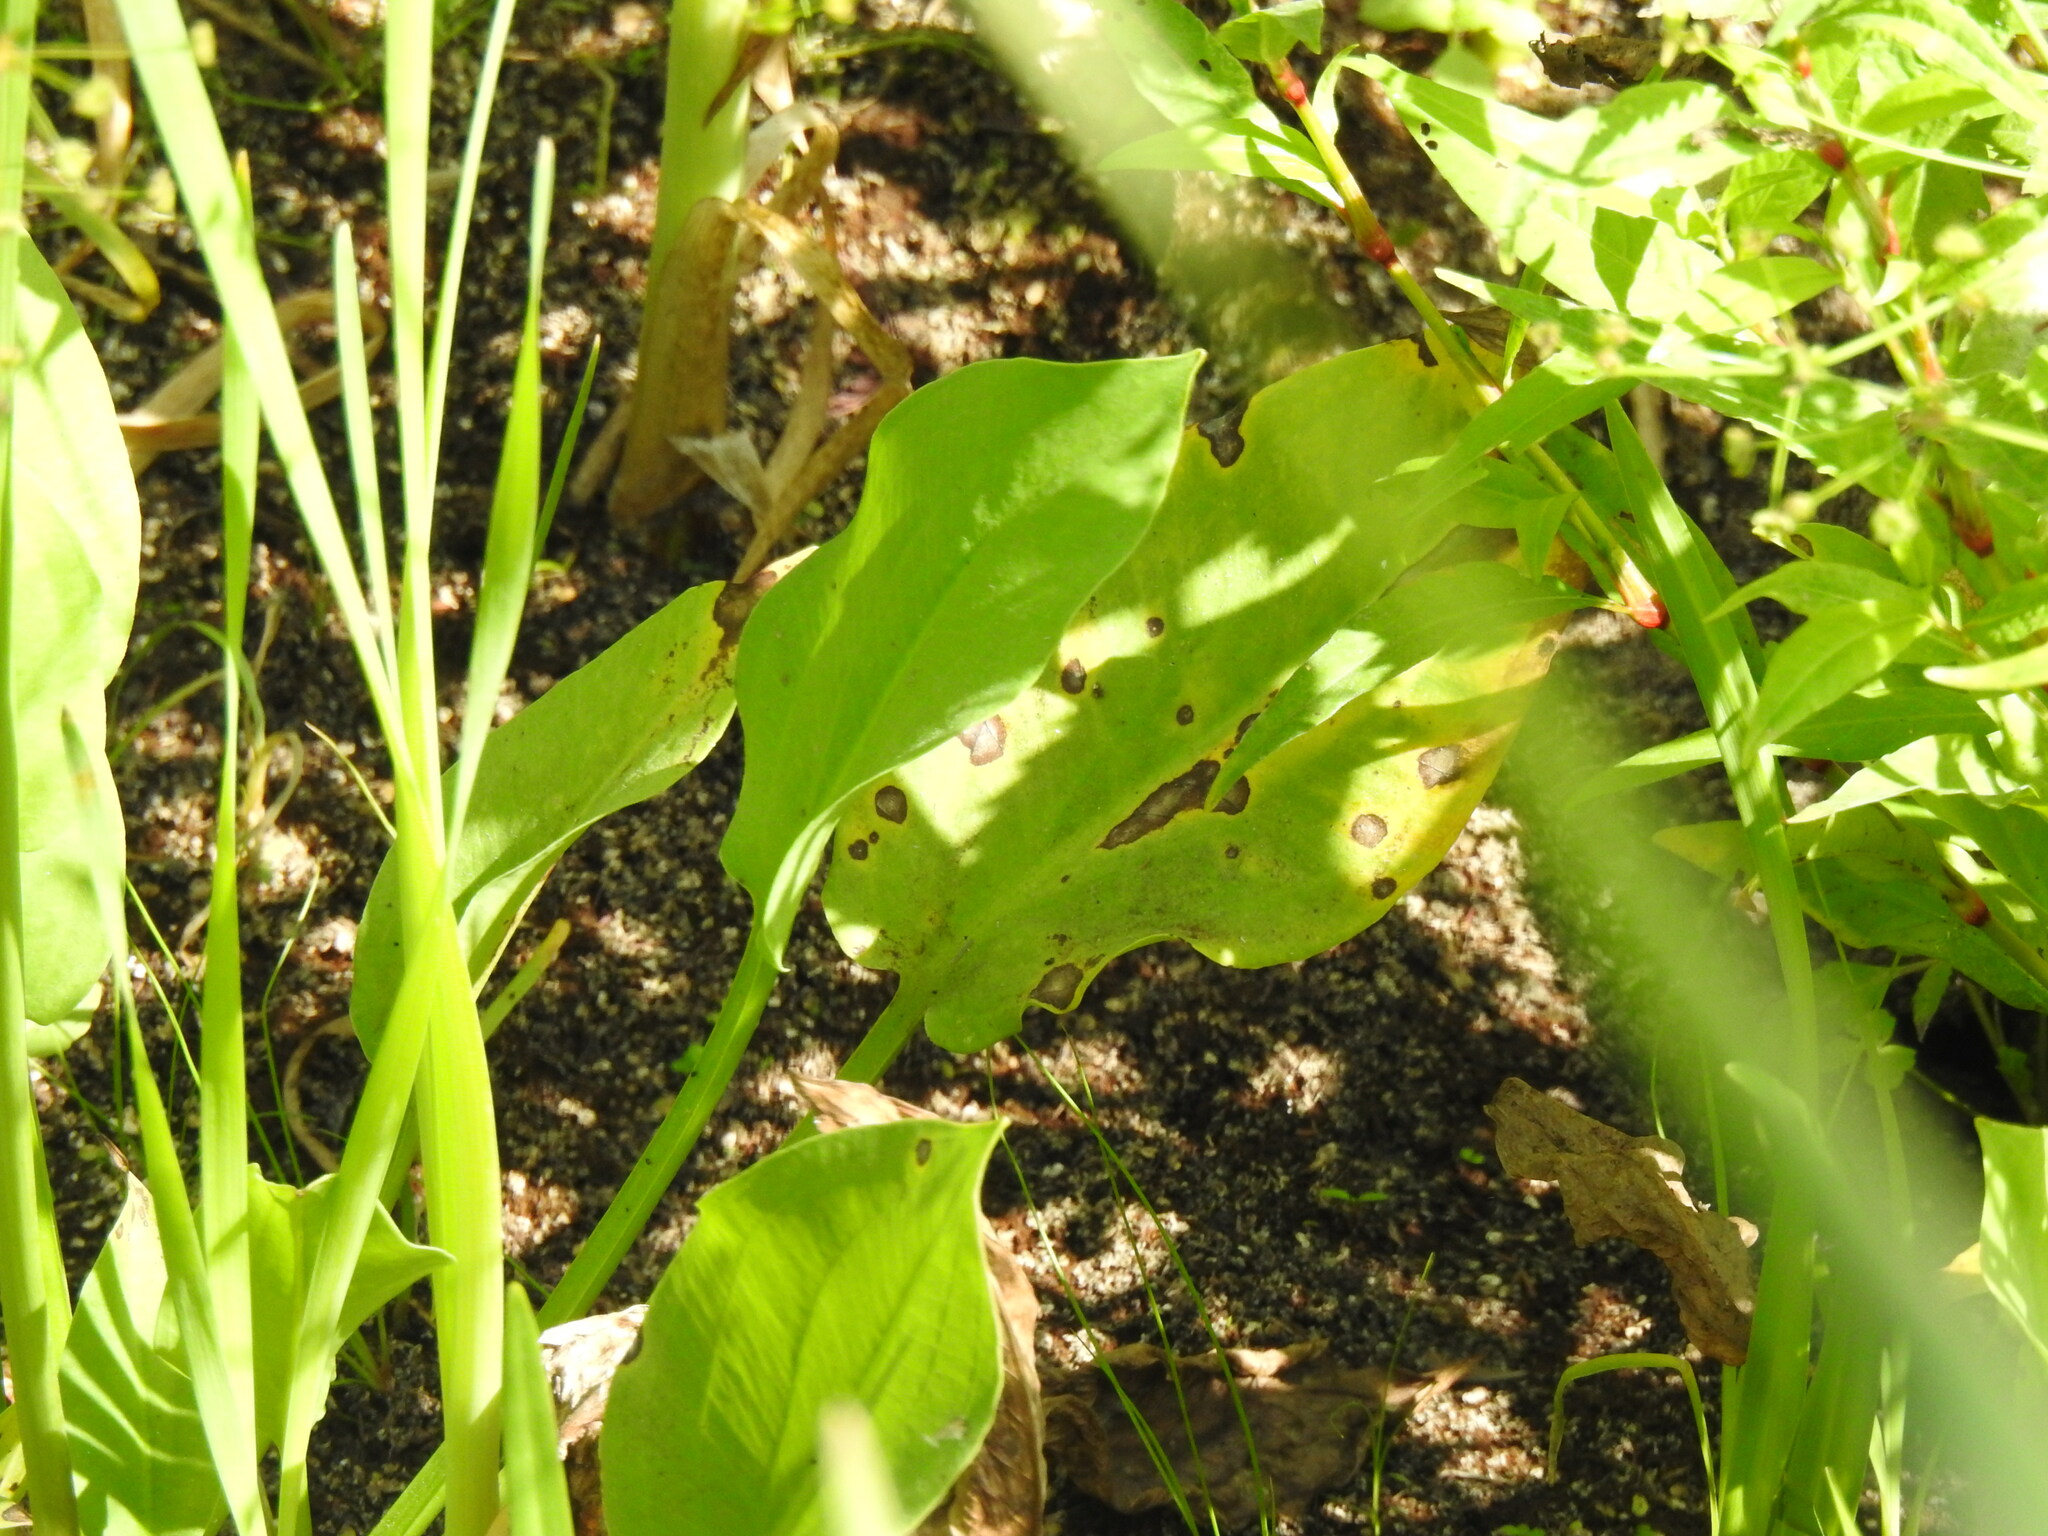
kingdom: Plantae
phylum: Tracheophyta
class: Liliopsida
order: Alismatales
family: Alismataceae
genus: Alisma
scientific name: Alisma plantago-aquatica
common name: Water-plantain
